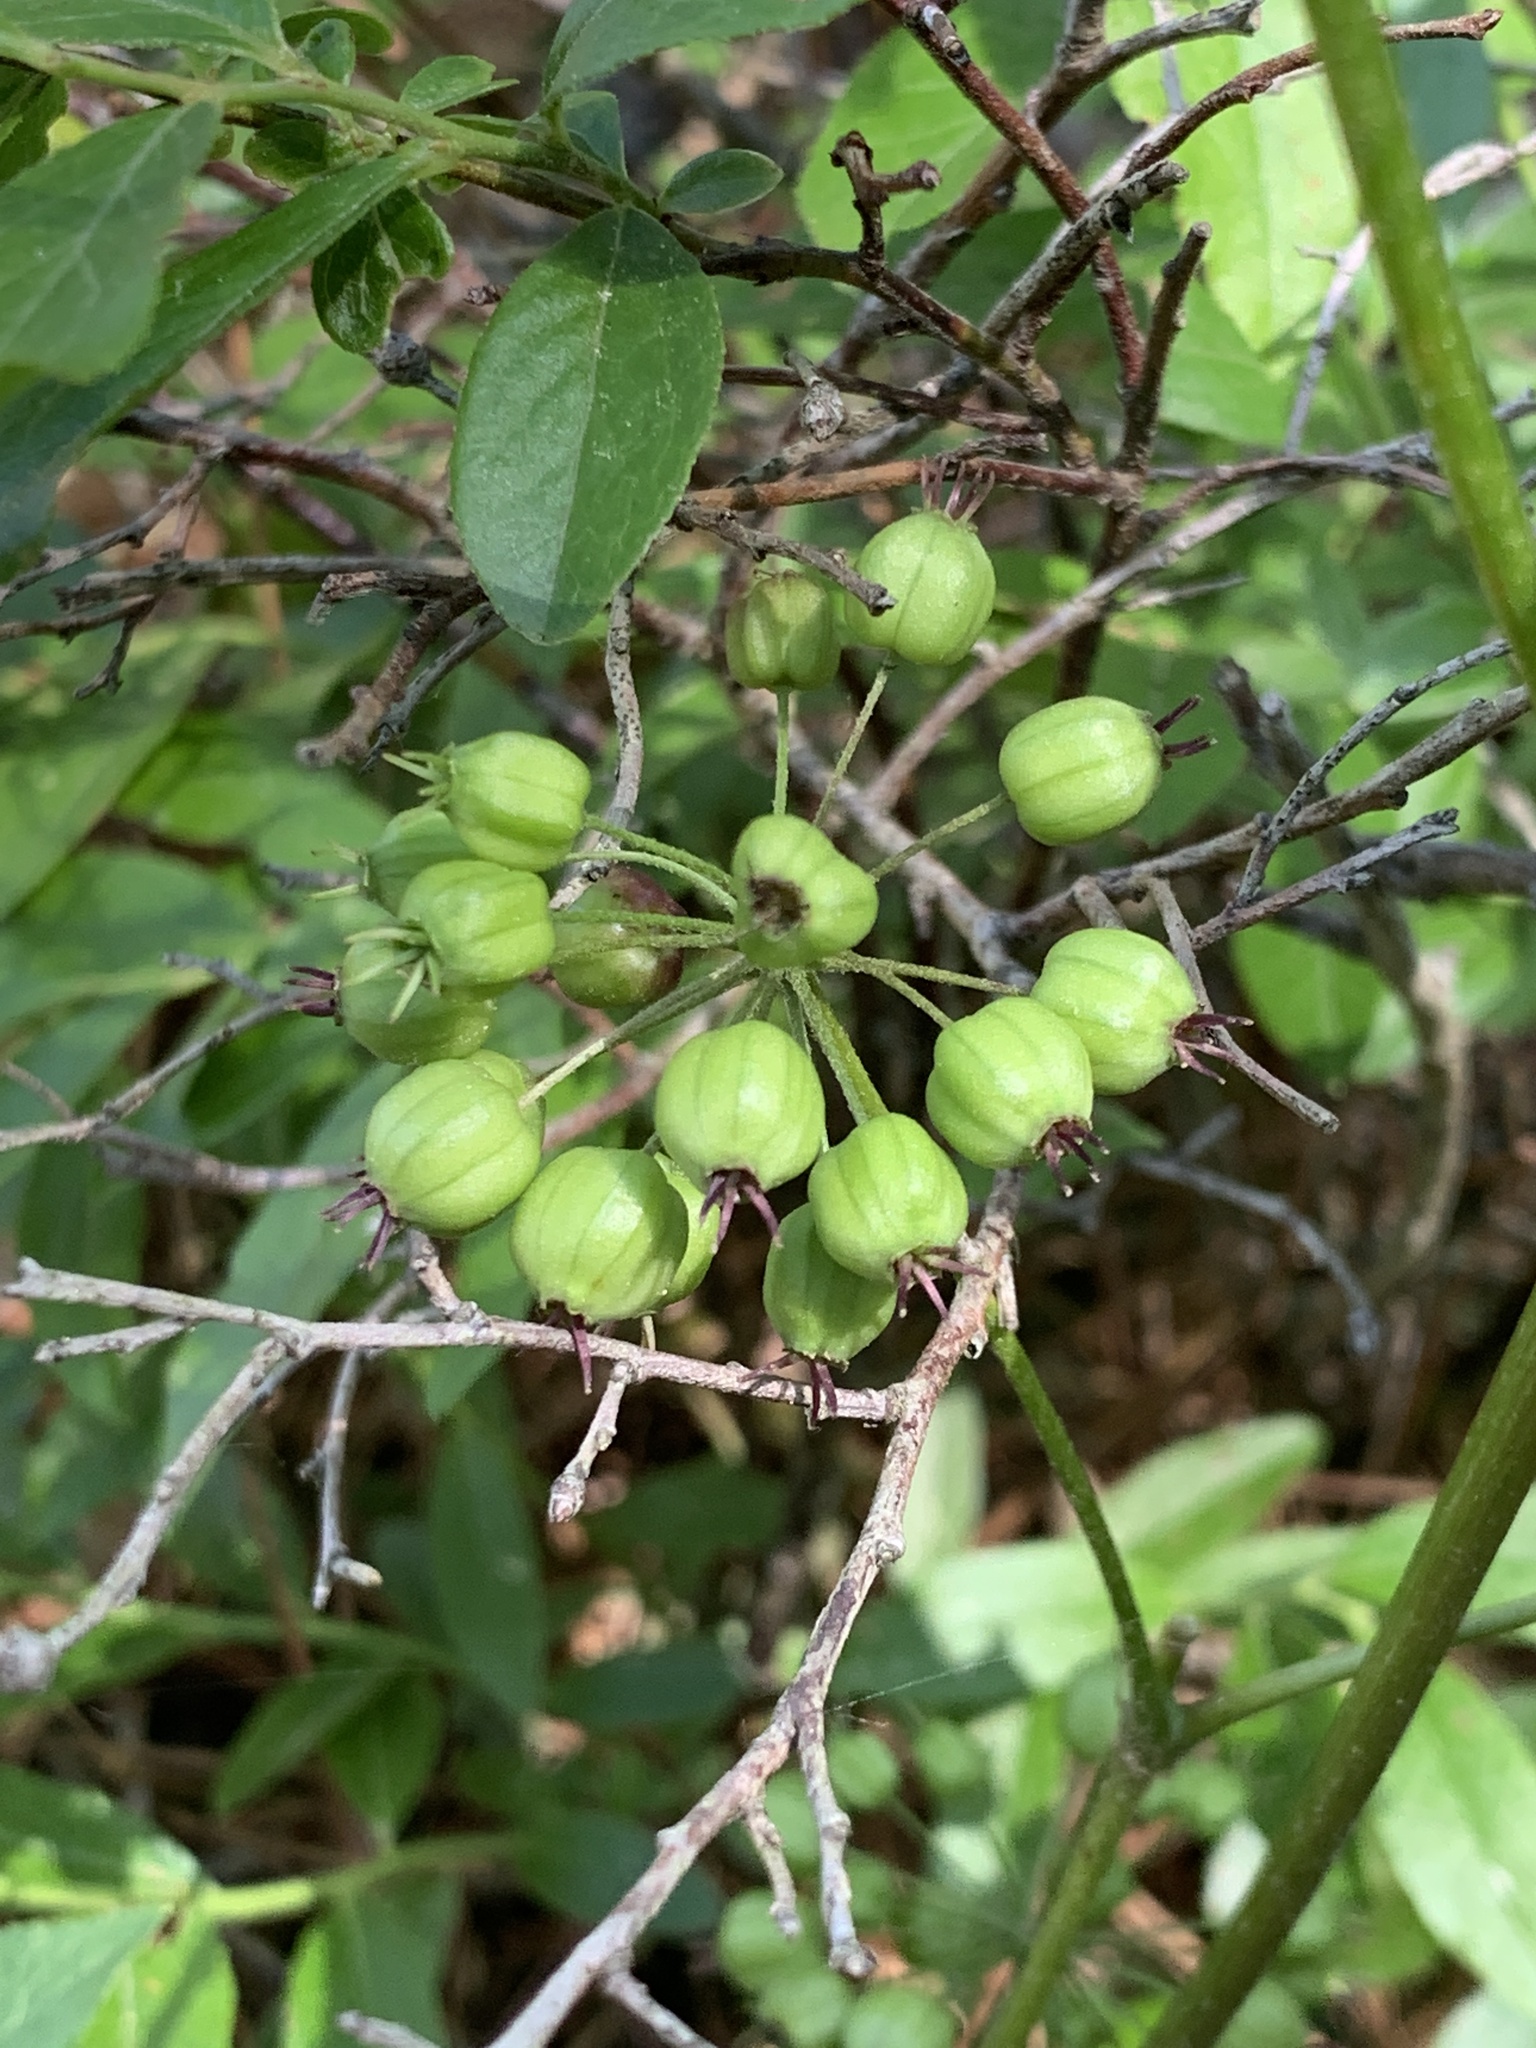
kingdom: Plantae
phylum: Tracheophyta
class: Magnoliopsida
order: Apiales
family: Araliaceae
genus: Aralia
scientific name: Aralia nudicaulis
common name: Wild sarsaparilla
